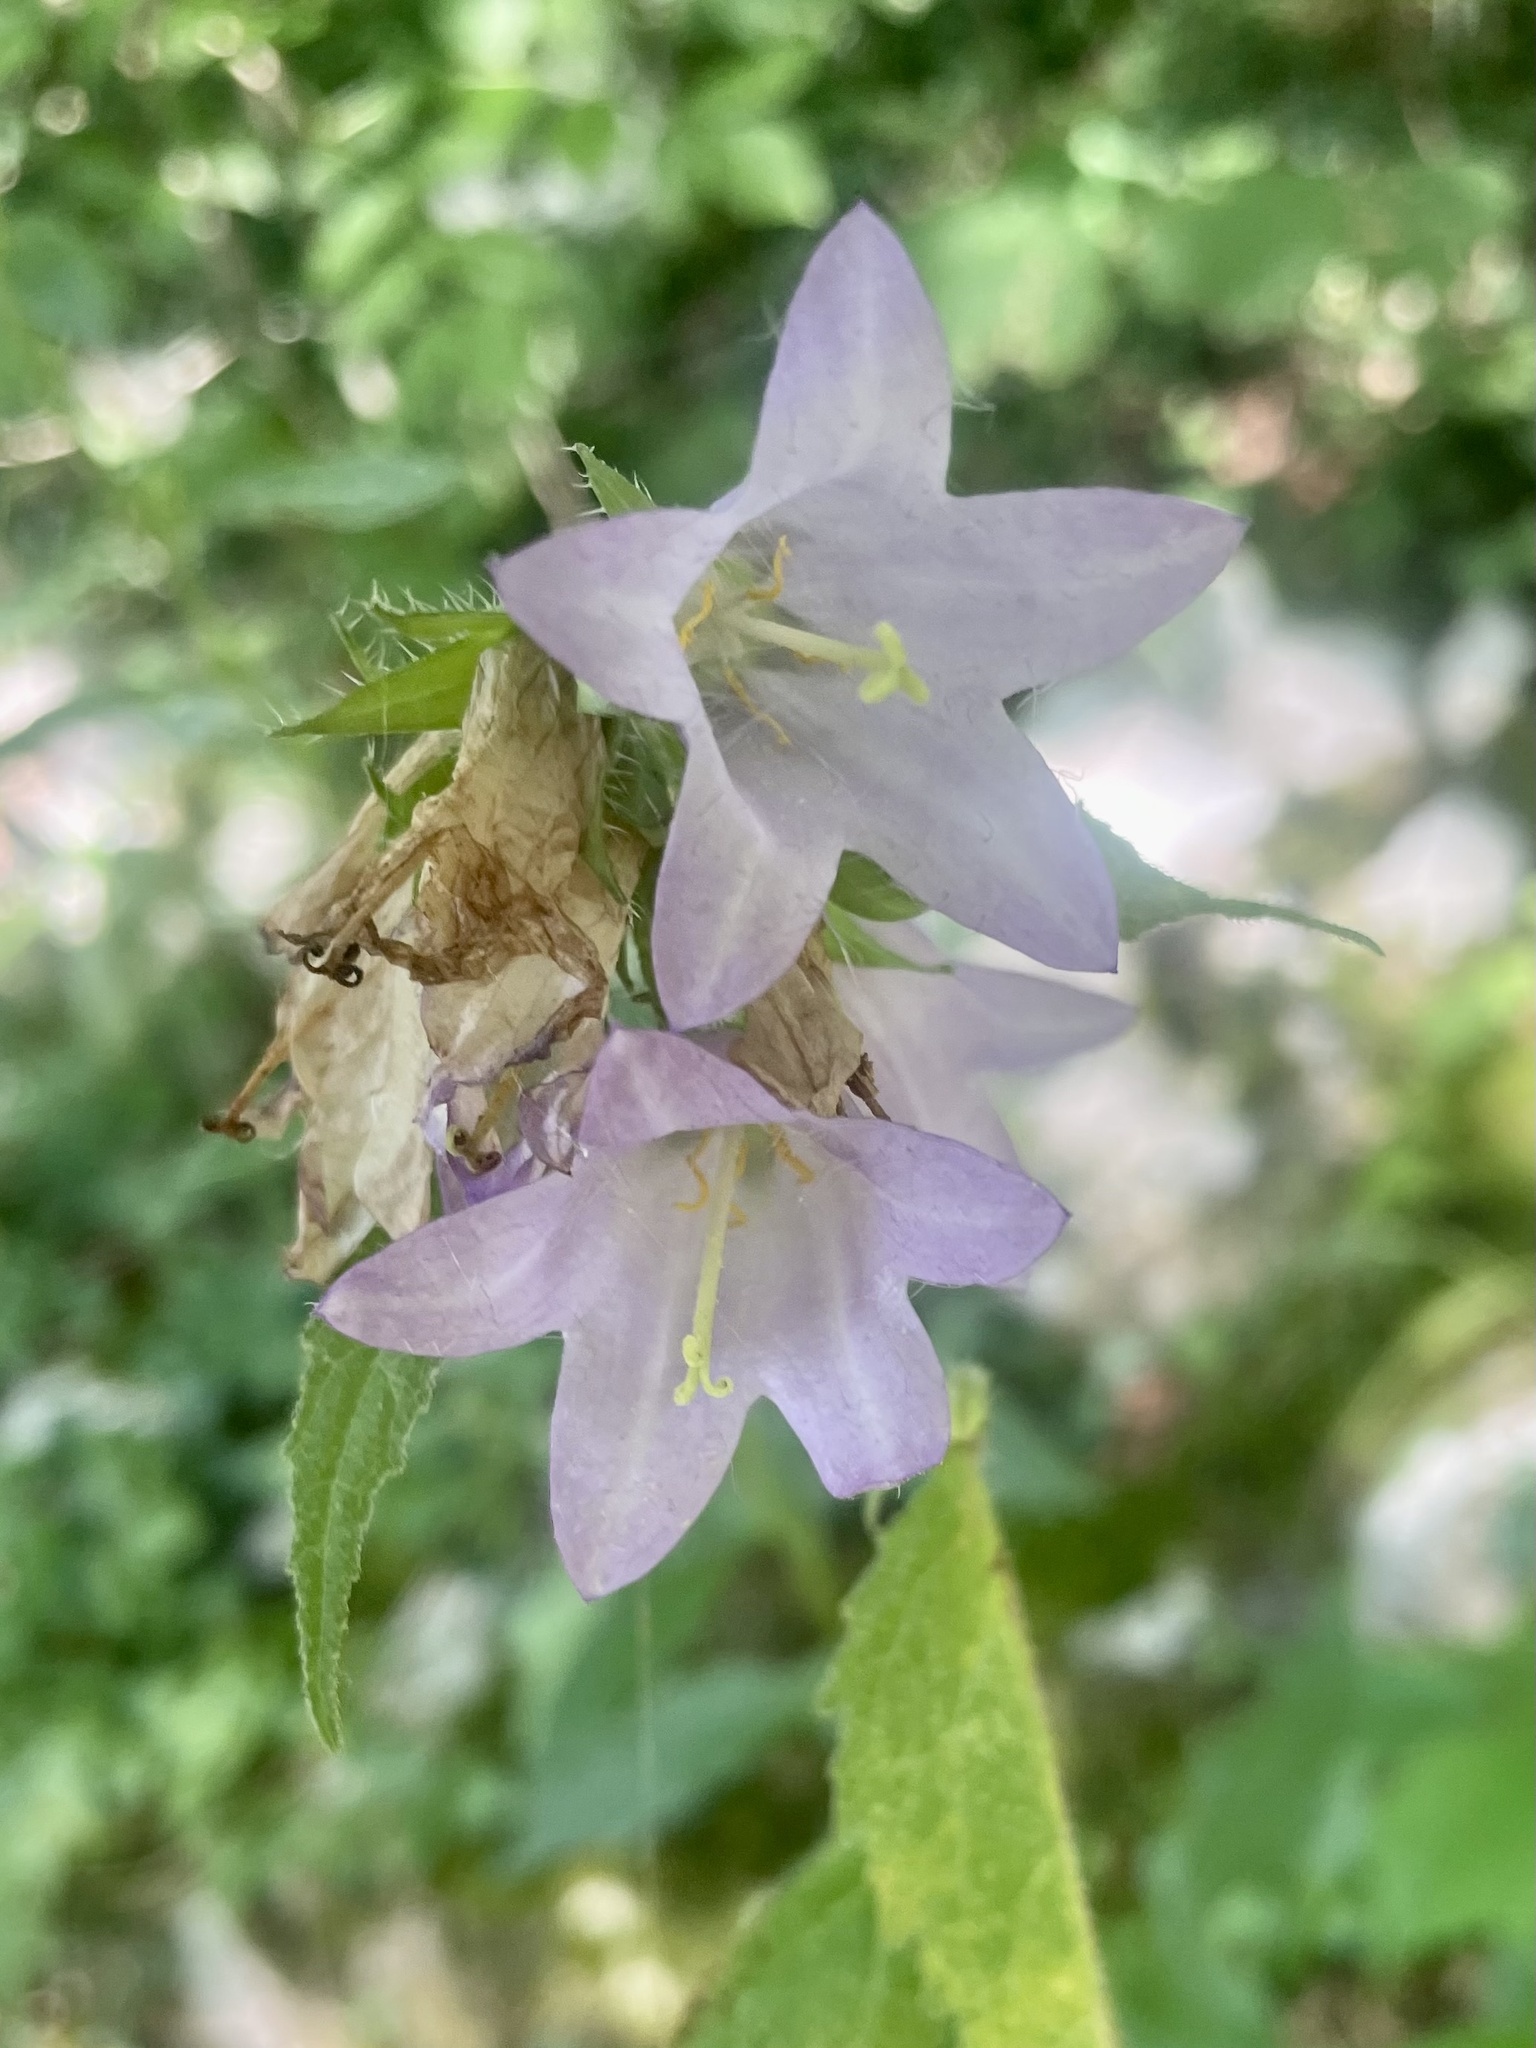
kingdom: Plantae
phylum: Tracheophyta
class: Magnoliopsida
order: Asterales
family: Campanulaceae
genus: Campanula
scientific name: Campanula trachelium
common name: Nettle-leaved bellflower
